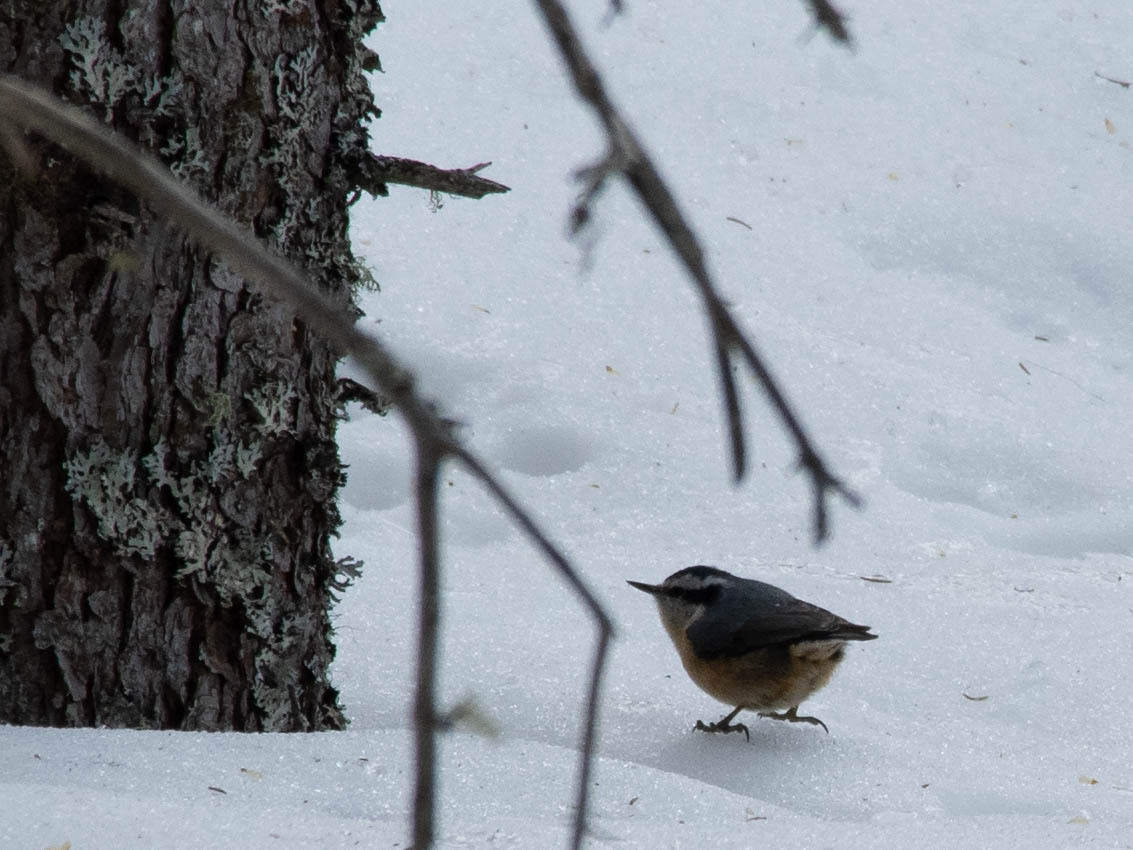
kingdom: Animalia
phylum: Chordata
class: Aves
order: Passeriformes
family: Sittidae
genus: Sitta
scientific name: Sitta canadensis
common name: Red-breasted nuthatch
